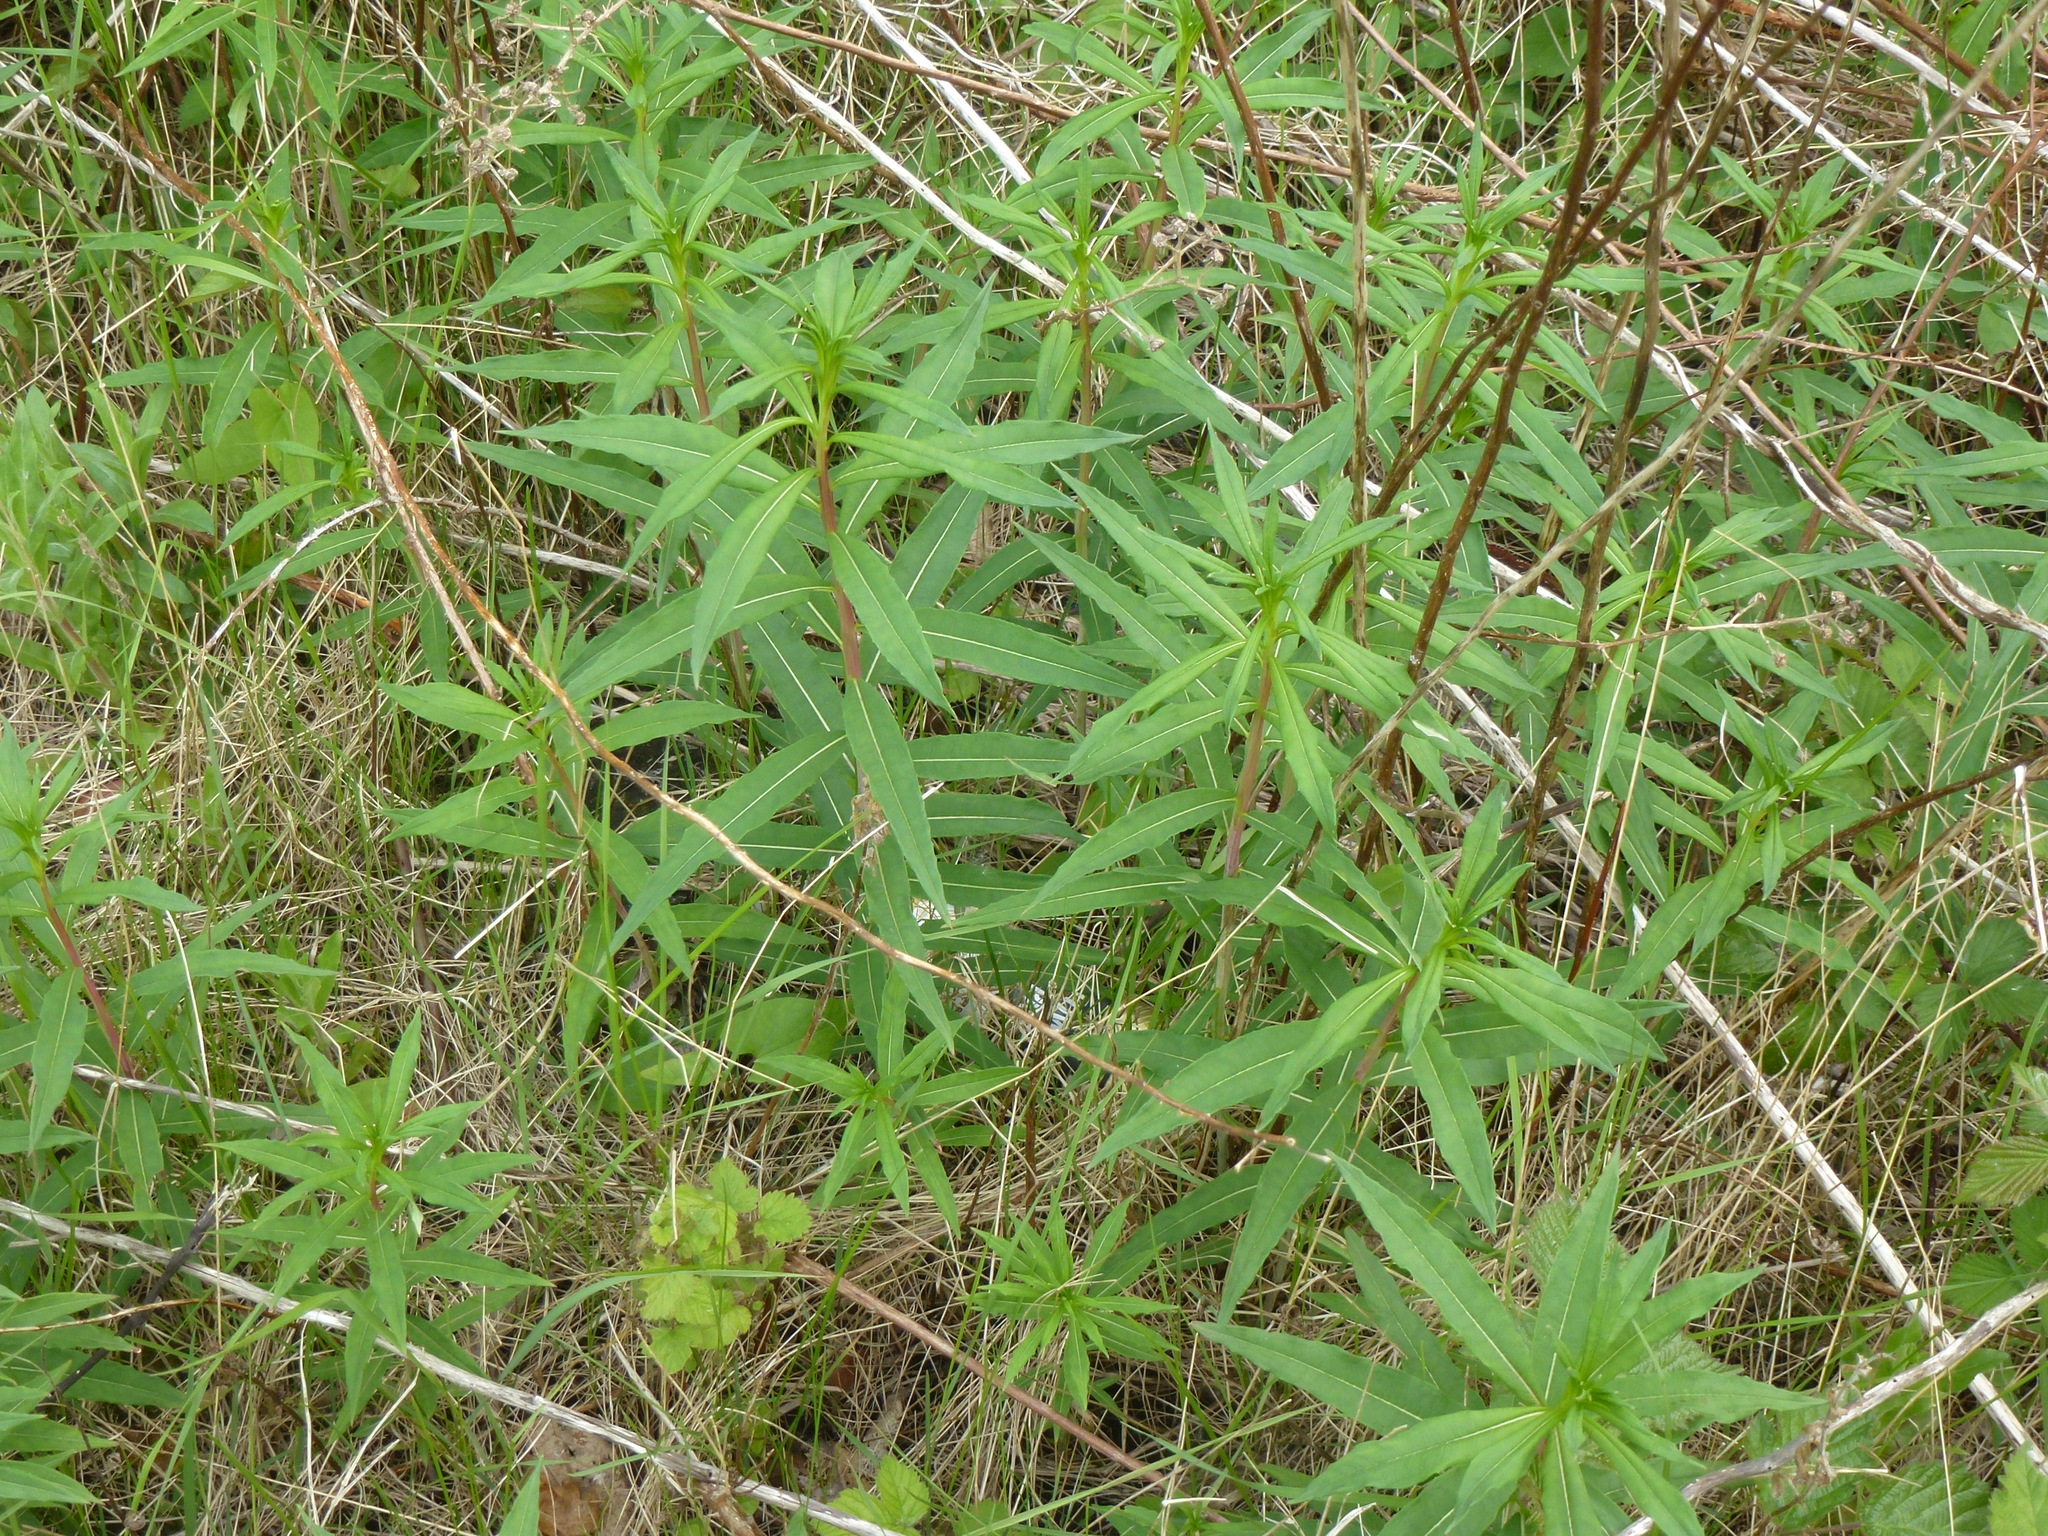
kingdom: Plantae
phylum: Tracheophyta
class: Magnoliopsida
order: Myrtales
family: Onagraceae
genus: Chamaenerion
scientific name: Chamaenerion angustifolium
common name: Fireweed
